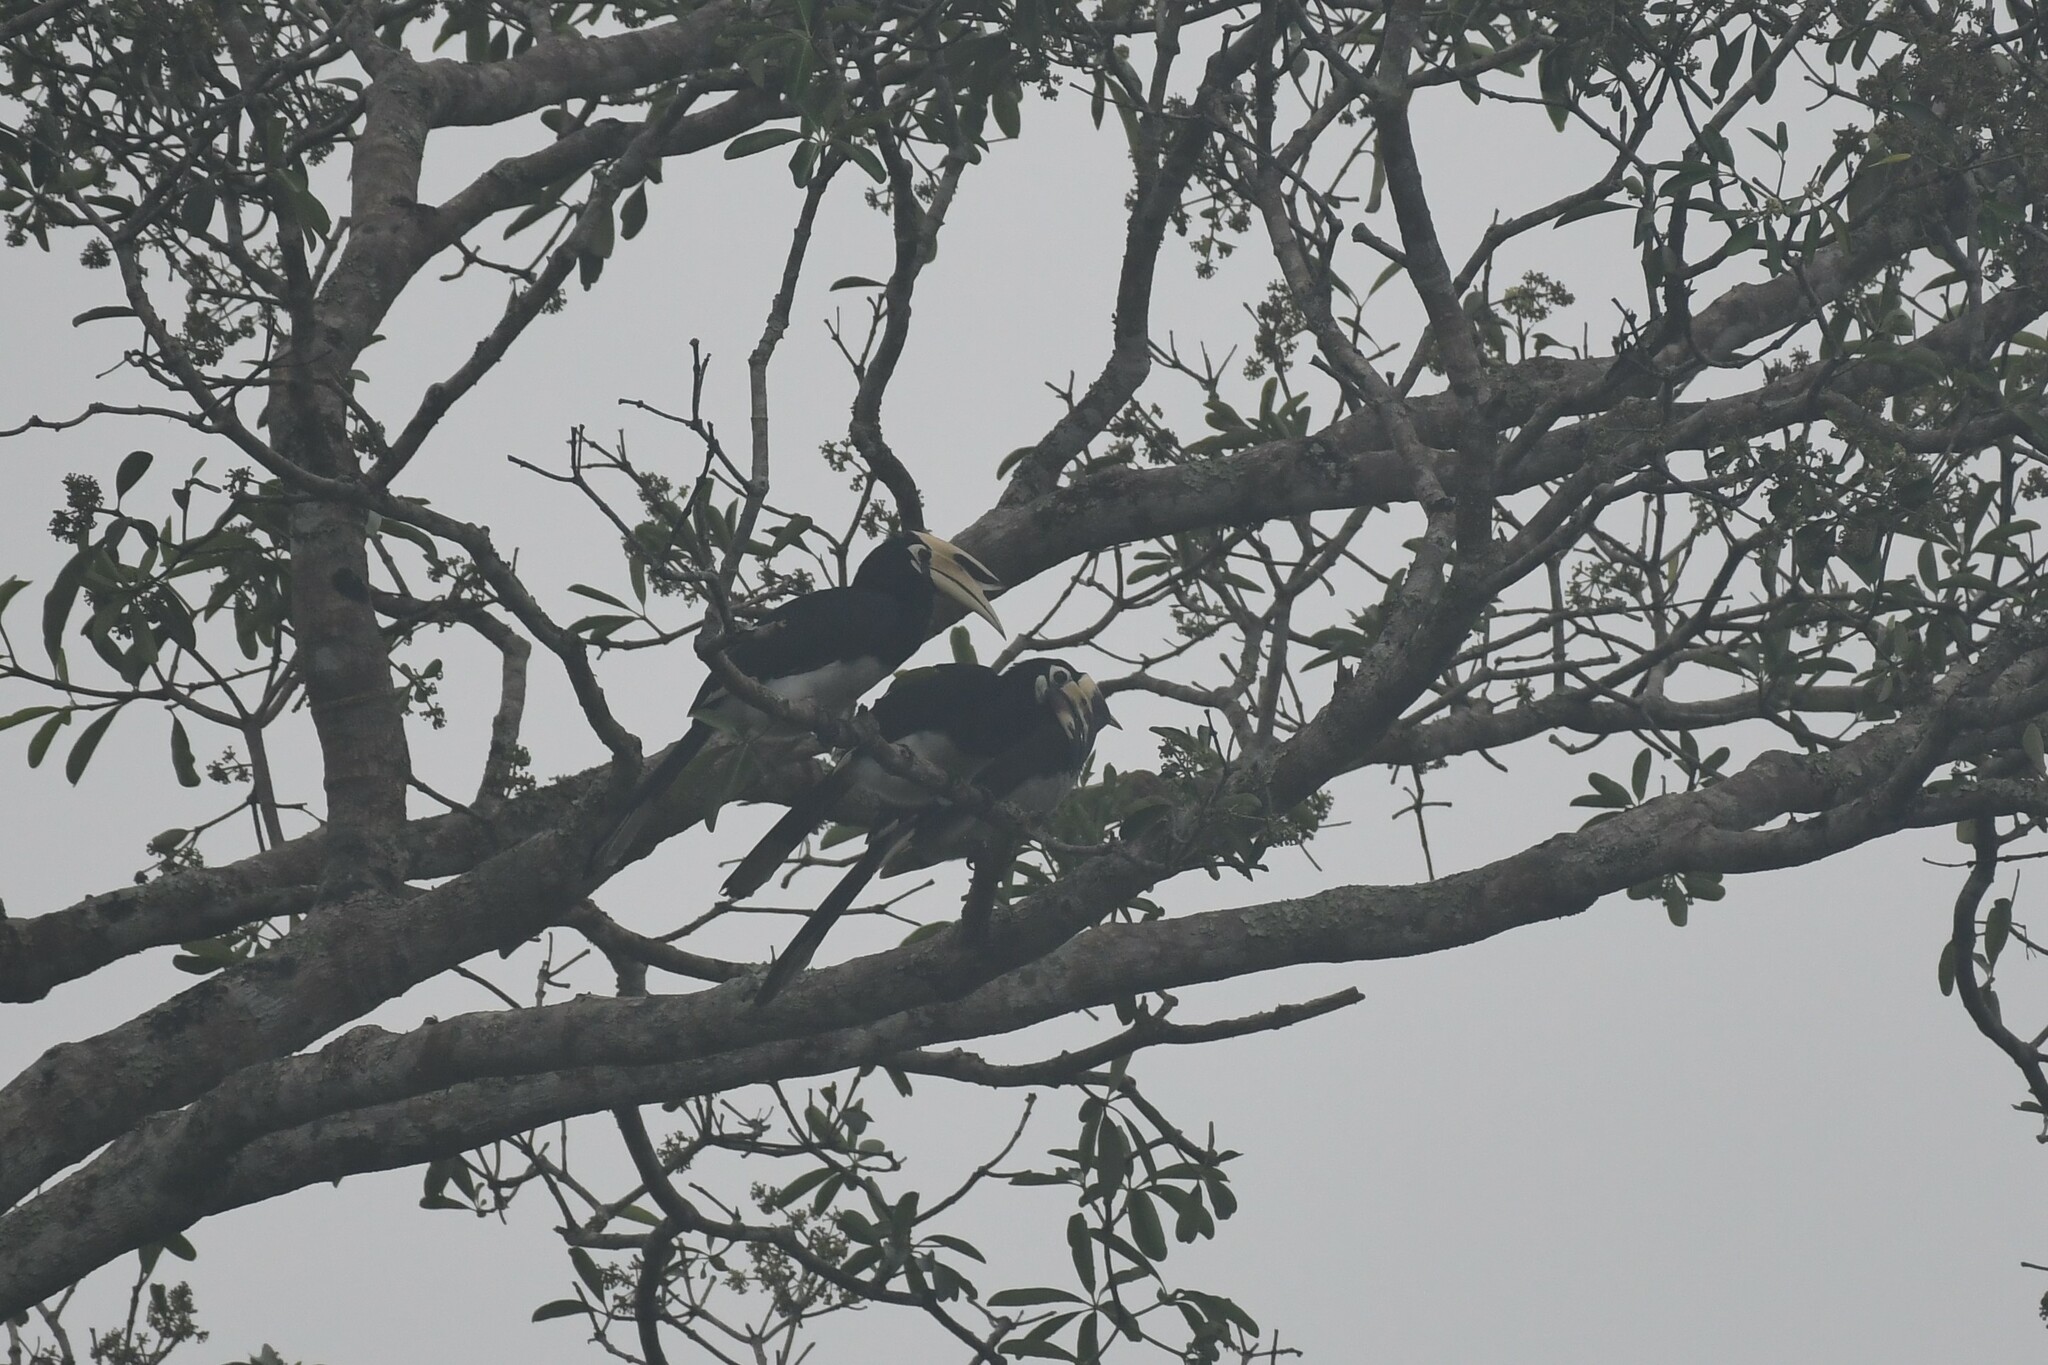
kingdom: Animalia
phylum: Chordata
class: Aves
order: Bucerotiformes
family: Bucerotidae
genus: Anthracoceros
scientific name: Anthracoceros albirostris
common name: Oriental pied-hornbill
